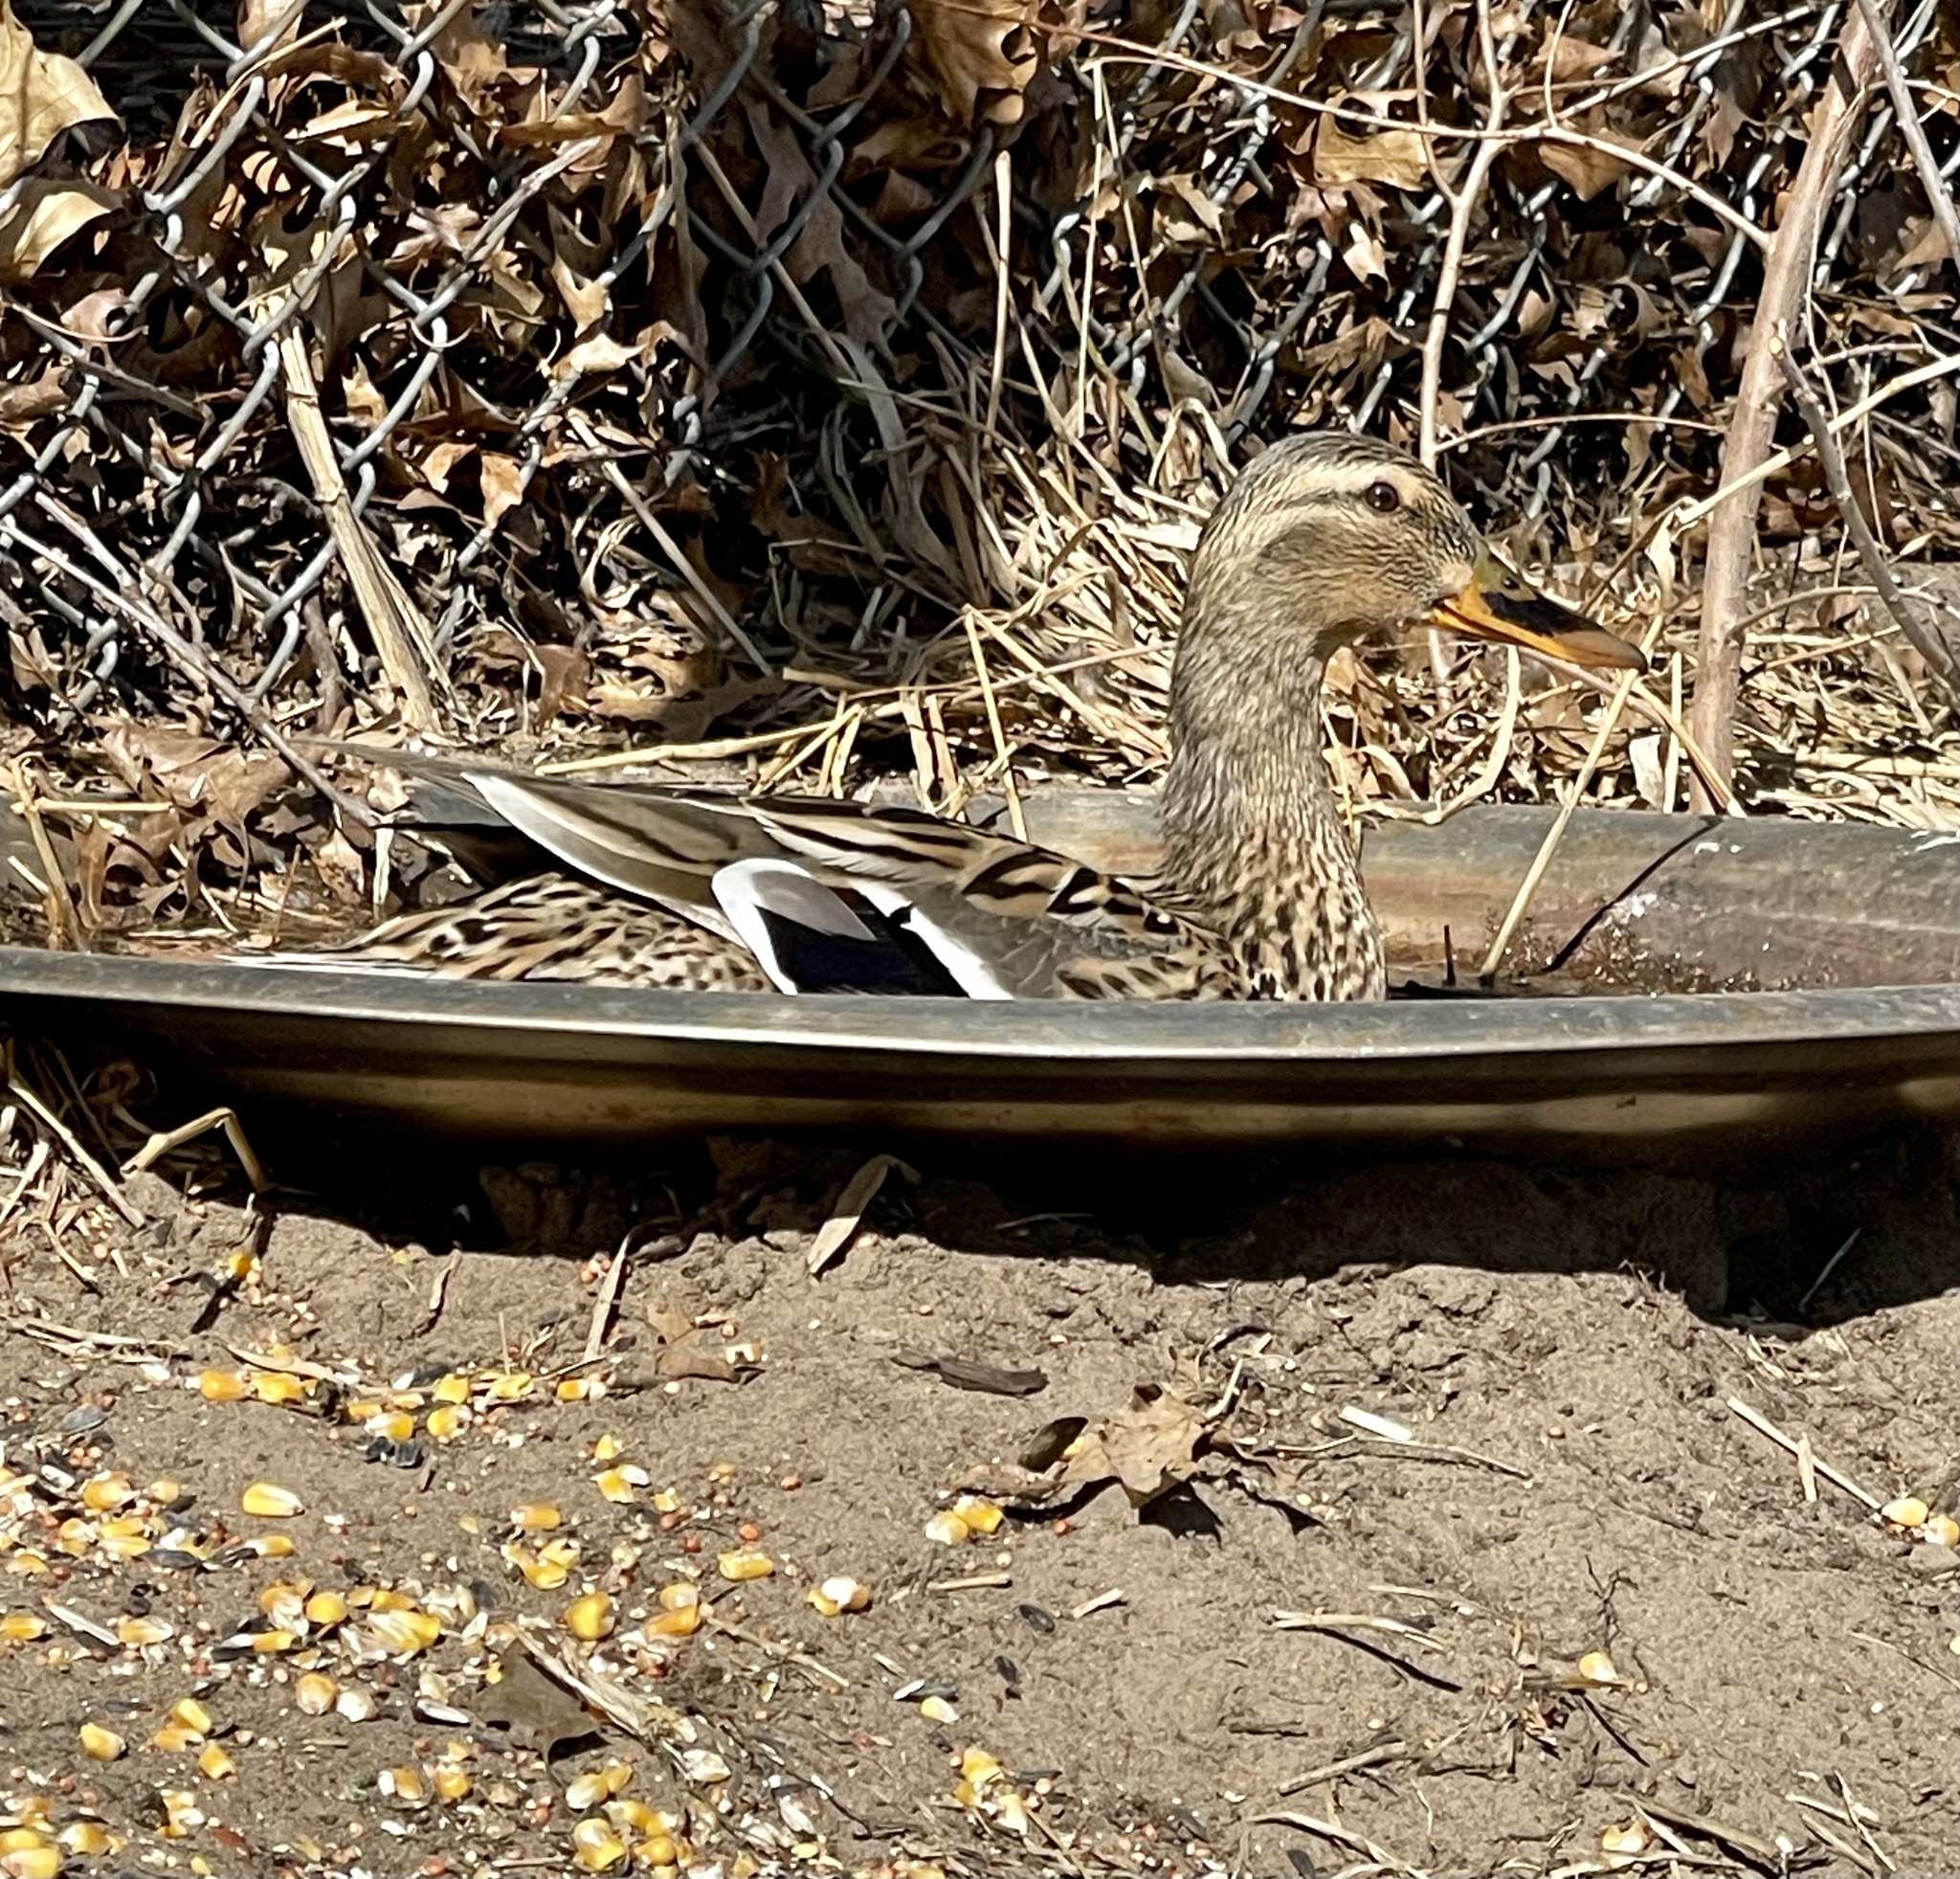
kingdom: Animalia
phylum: Chordata
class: Aves
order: Anseriformes
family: Anatidae
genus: Anas
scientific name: Anas platyrhynchos
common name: Mallard
